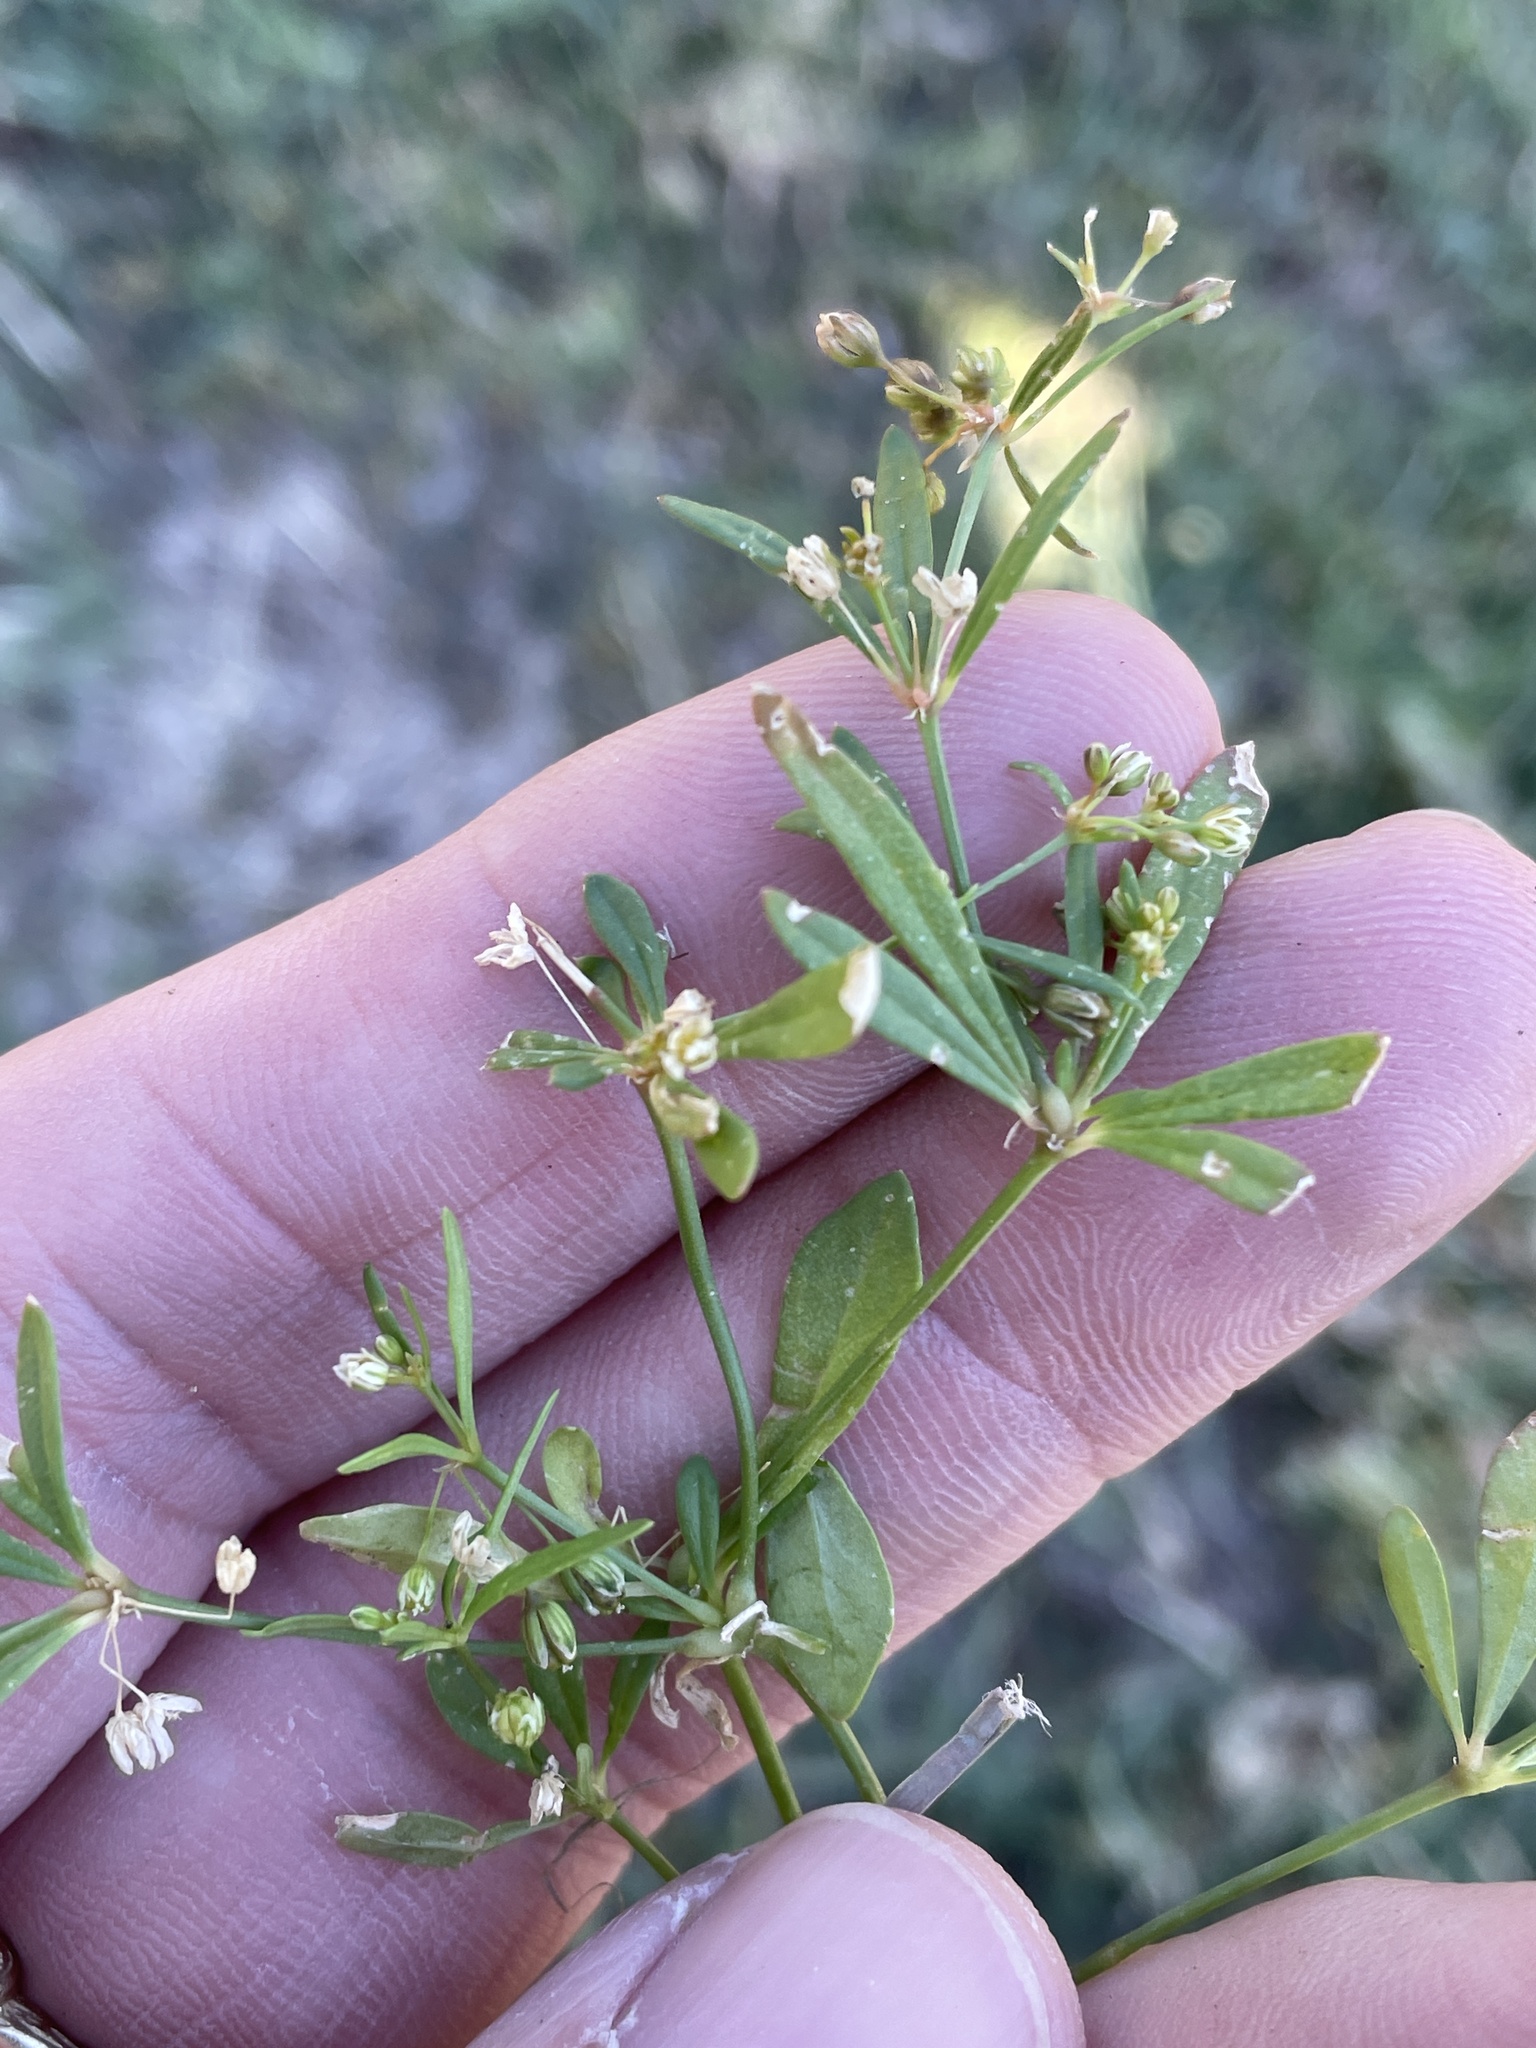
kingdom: Plantae
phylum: Tracheophyta
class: Magnoliopsida
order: Caryophyllales
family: Molluginaceae
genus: Mollugo
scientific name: Mollugo verticillata
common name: Green carpetweed
